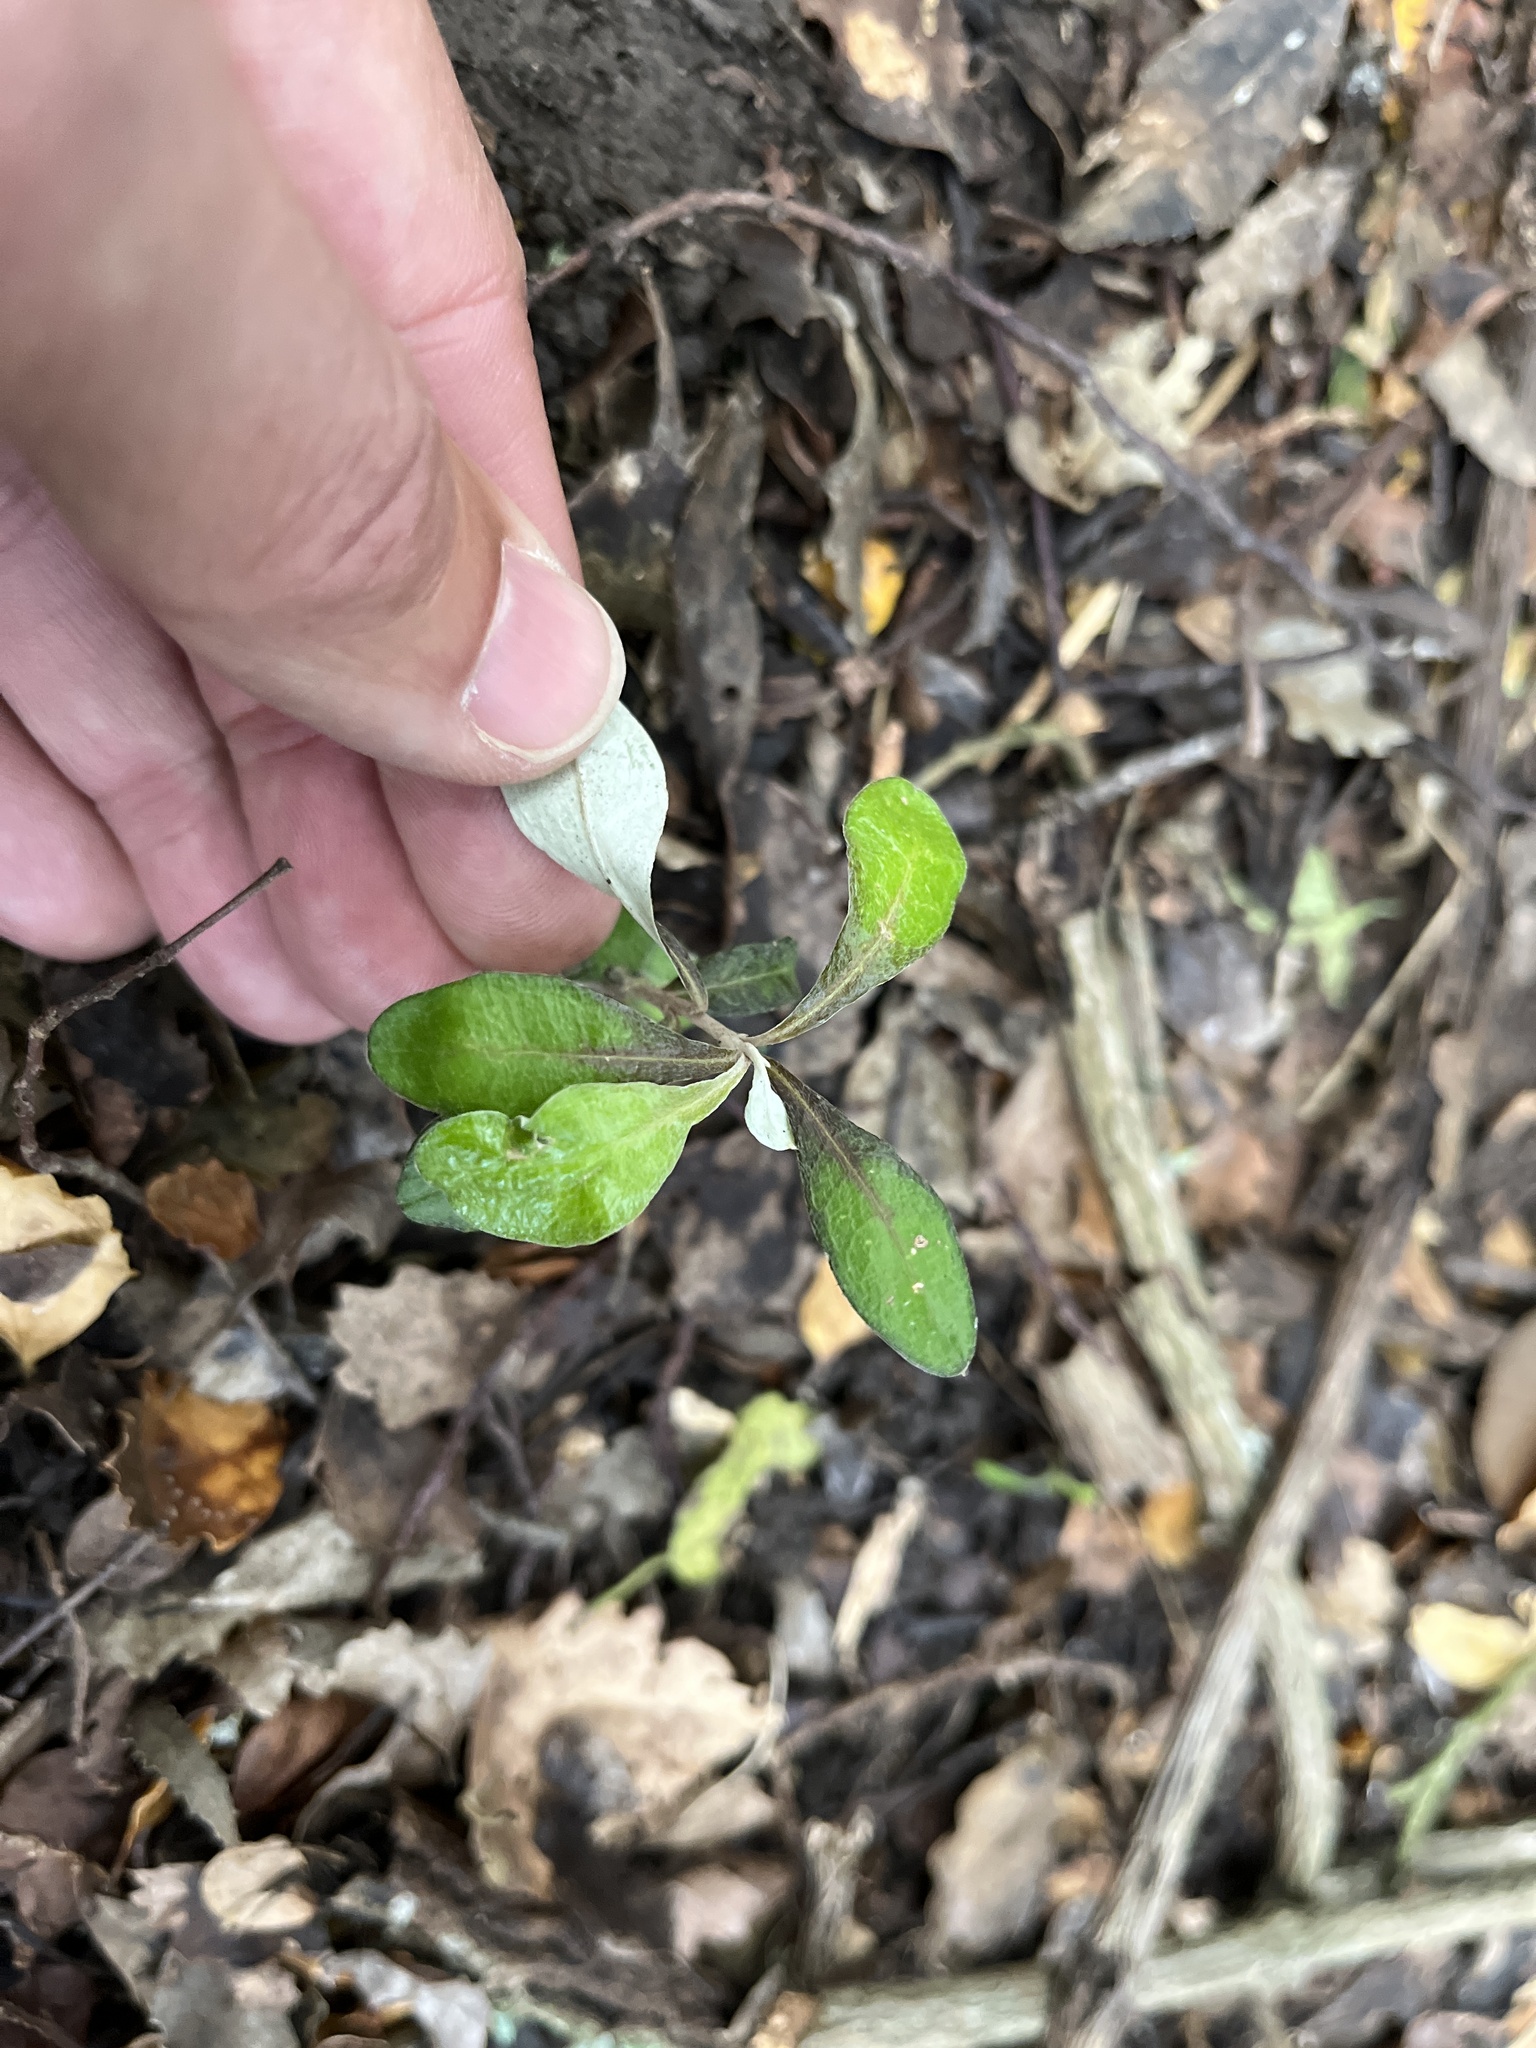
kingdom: Plantae
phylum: Tracheophyta
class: Magnoliopsida
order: Asterales
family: Argophyllaceae
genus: Corokia
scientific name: Corokia virgata
